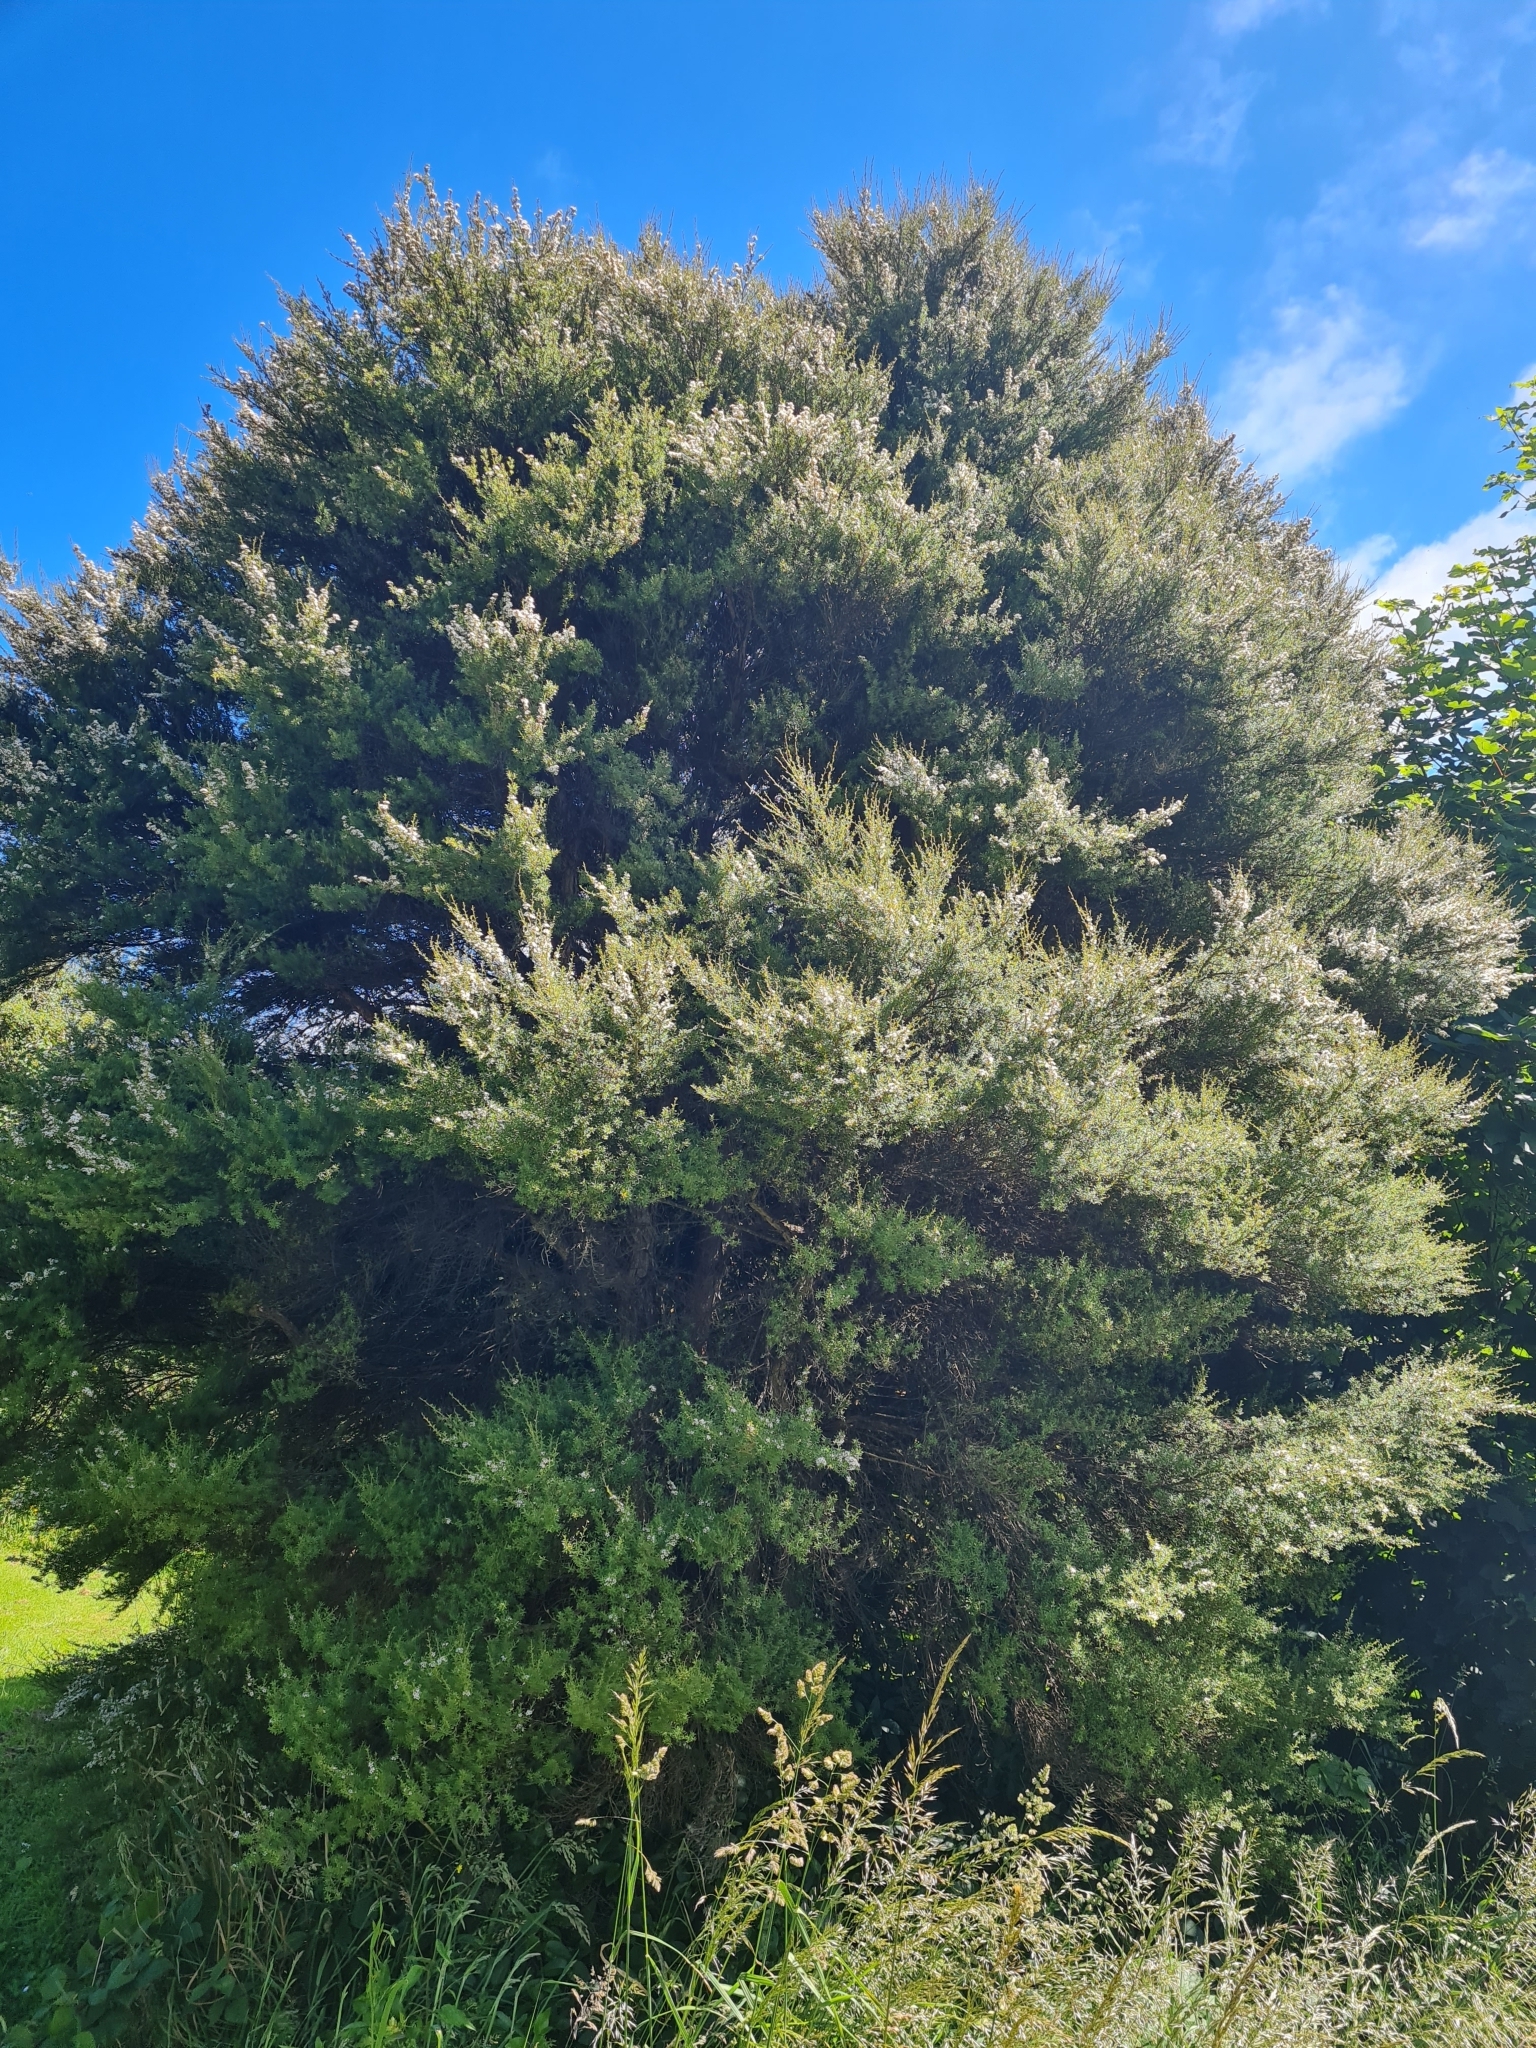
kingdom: Plantae
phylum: Tracheophyta
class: Magnoliopsida
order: Myrtales
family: Myrtaceae
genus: Kunzea
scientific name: Kunzea robusta
